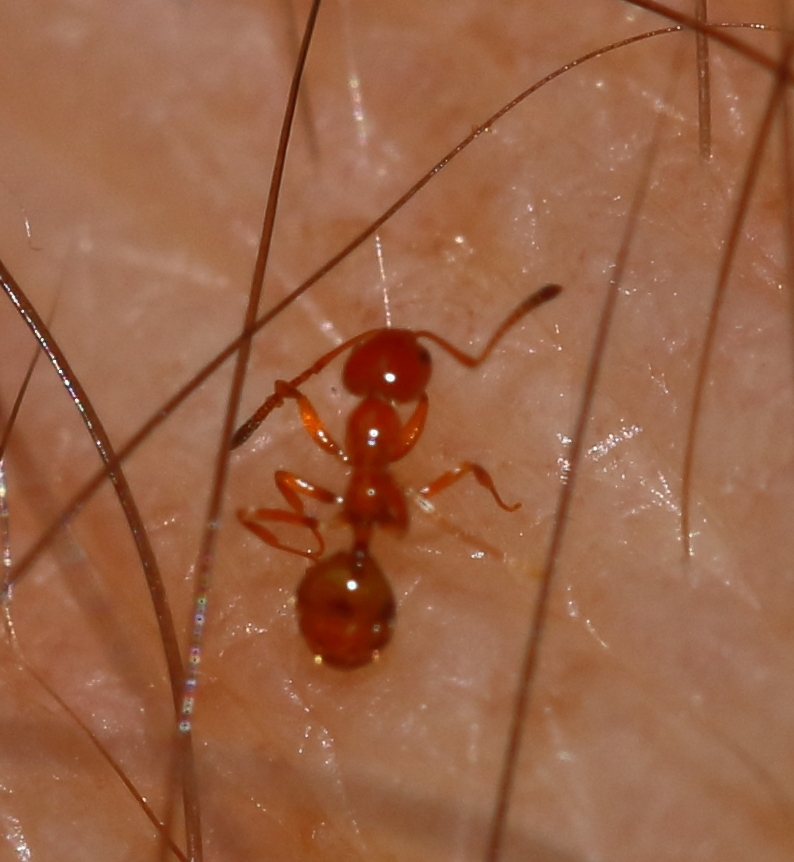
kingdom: Animalia
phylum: Arthropoda
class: Insecta
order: Hymenoptera
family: Formicidae
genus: Plagiolepis
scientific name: Plagiolepis decora
